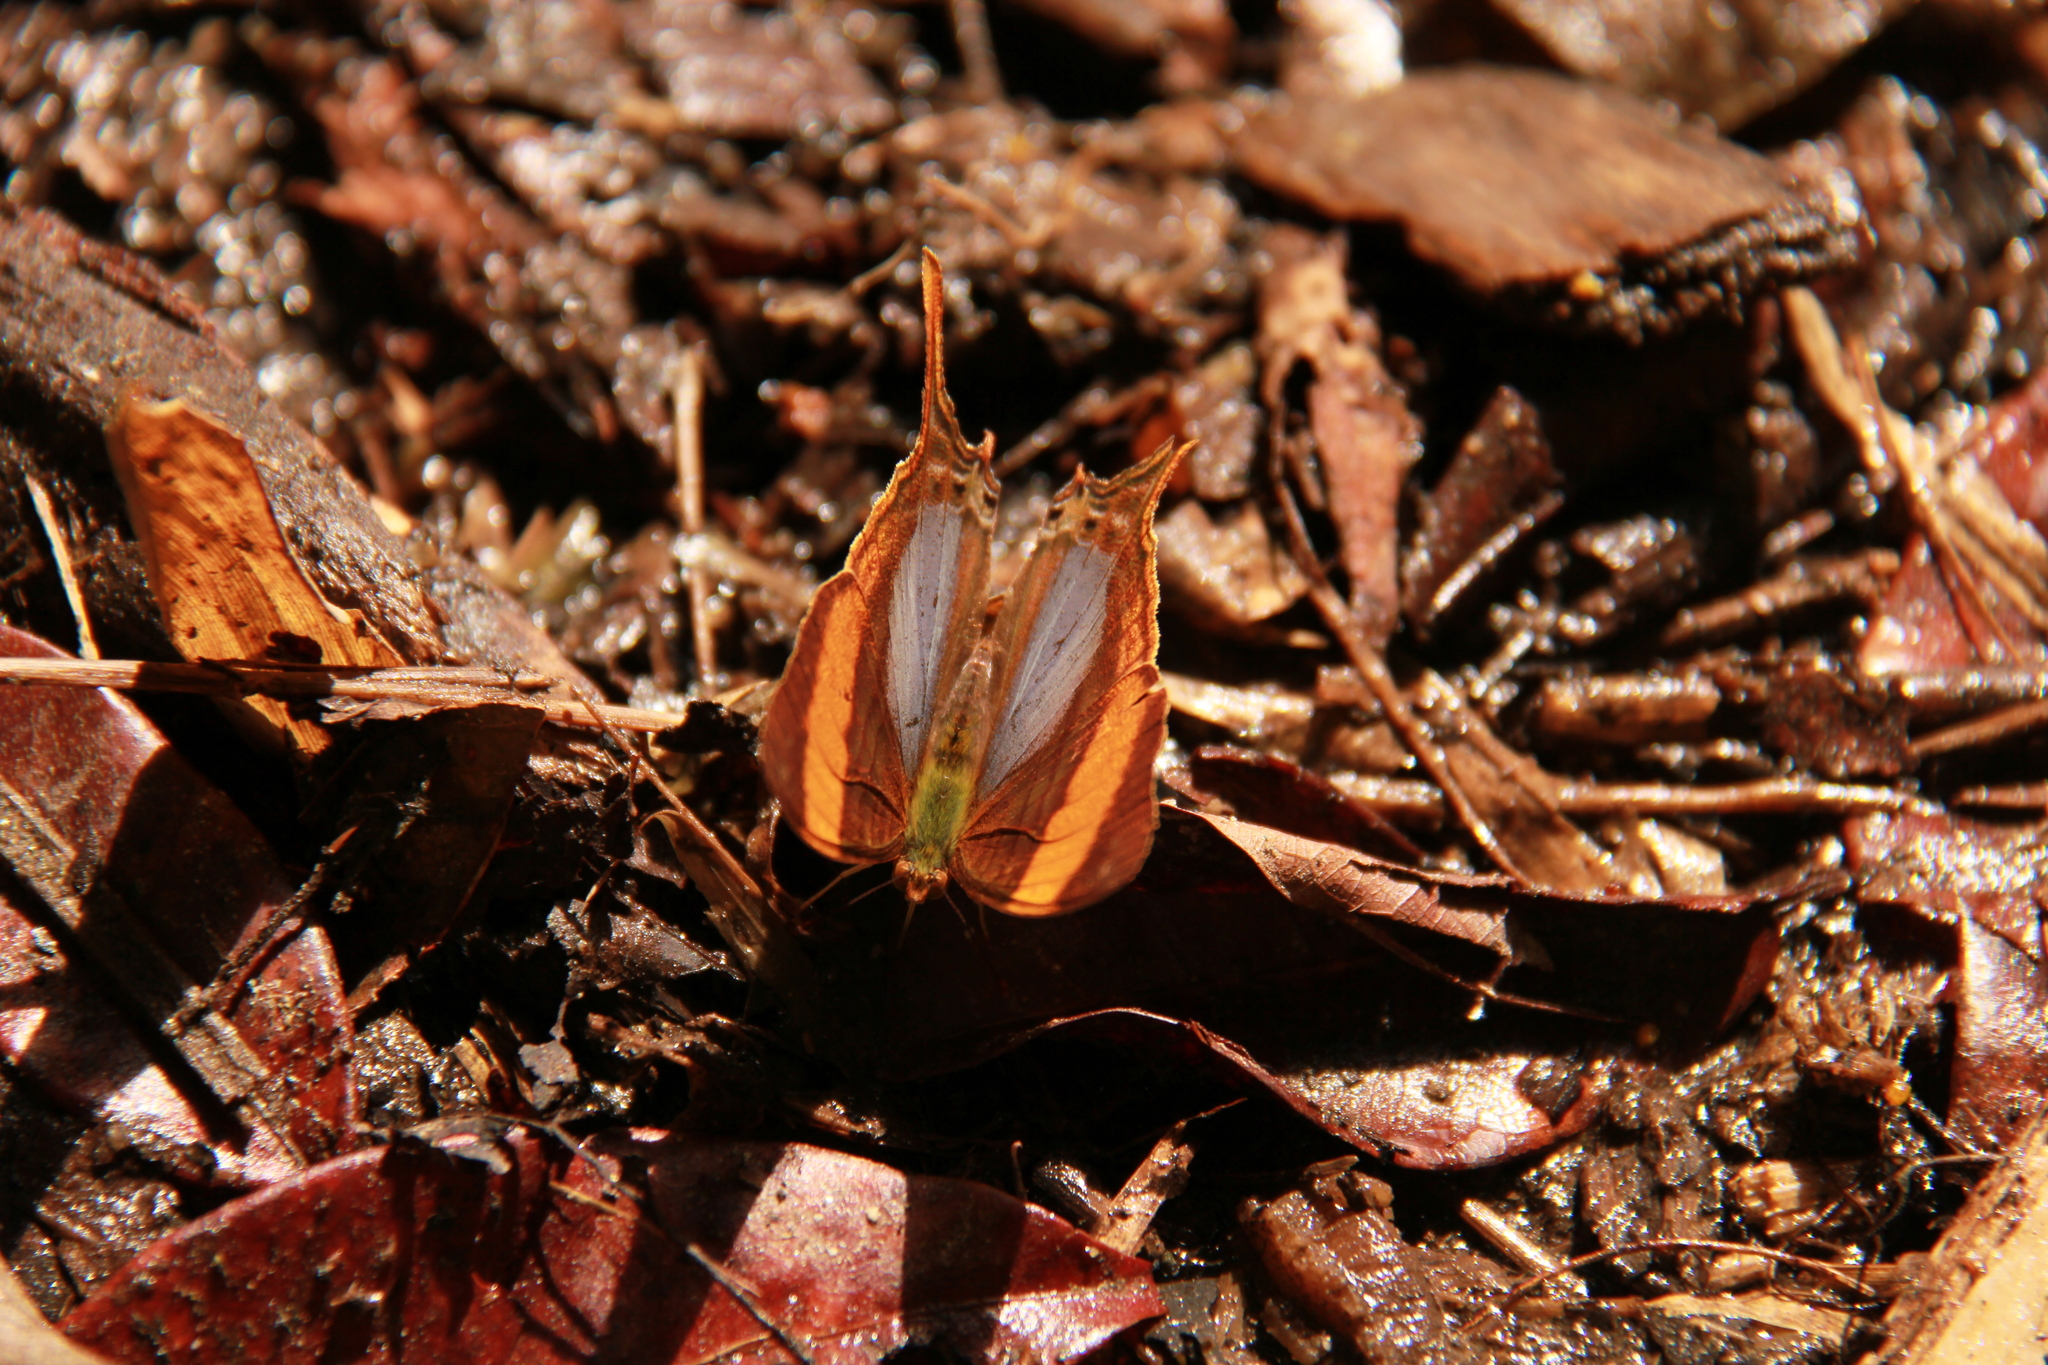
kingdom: Animalia
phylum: Arthropoda
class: Insecta
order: Lepidoptera
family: Nymphalidae
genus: Marpesia
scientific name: Marpesia corinna
